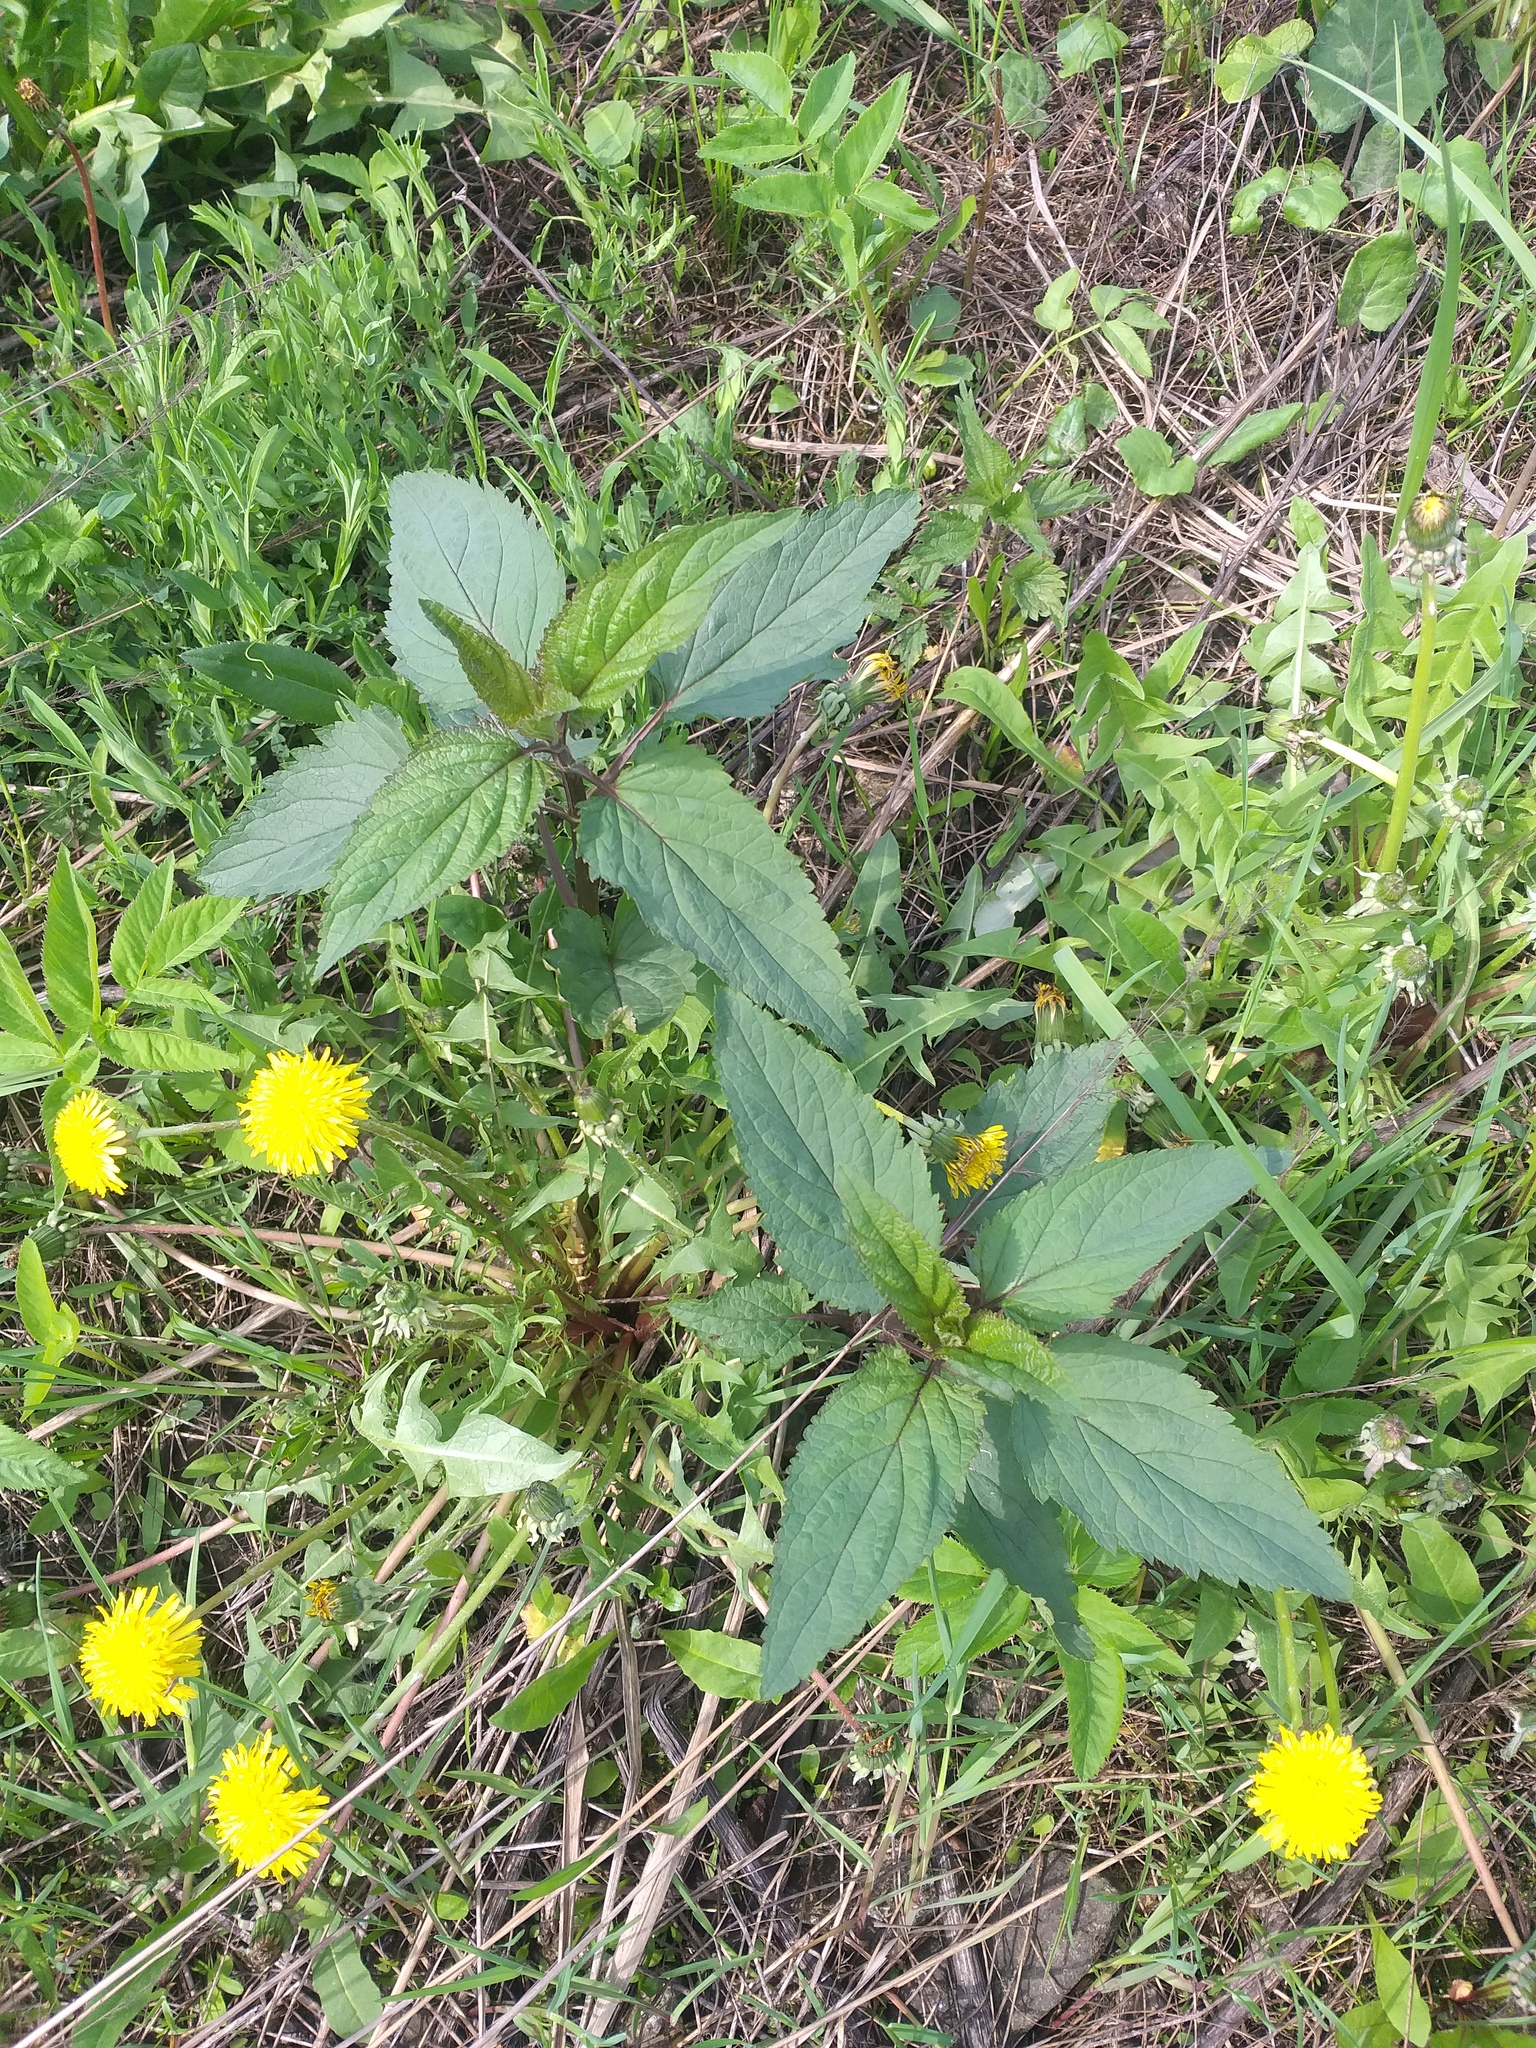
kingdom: Plantae
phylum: Tracheophyta
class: Magnoliopsida
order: Lamiales
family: Scrophulariaceae
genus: Scrophularia
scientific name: Scrophularia nodosa
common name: Common figwort
